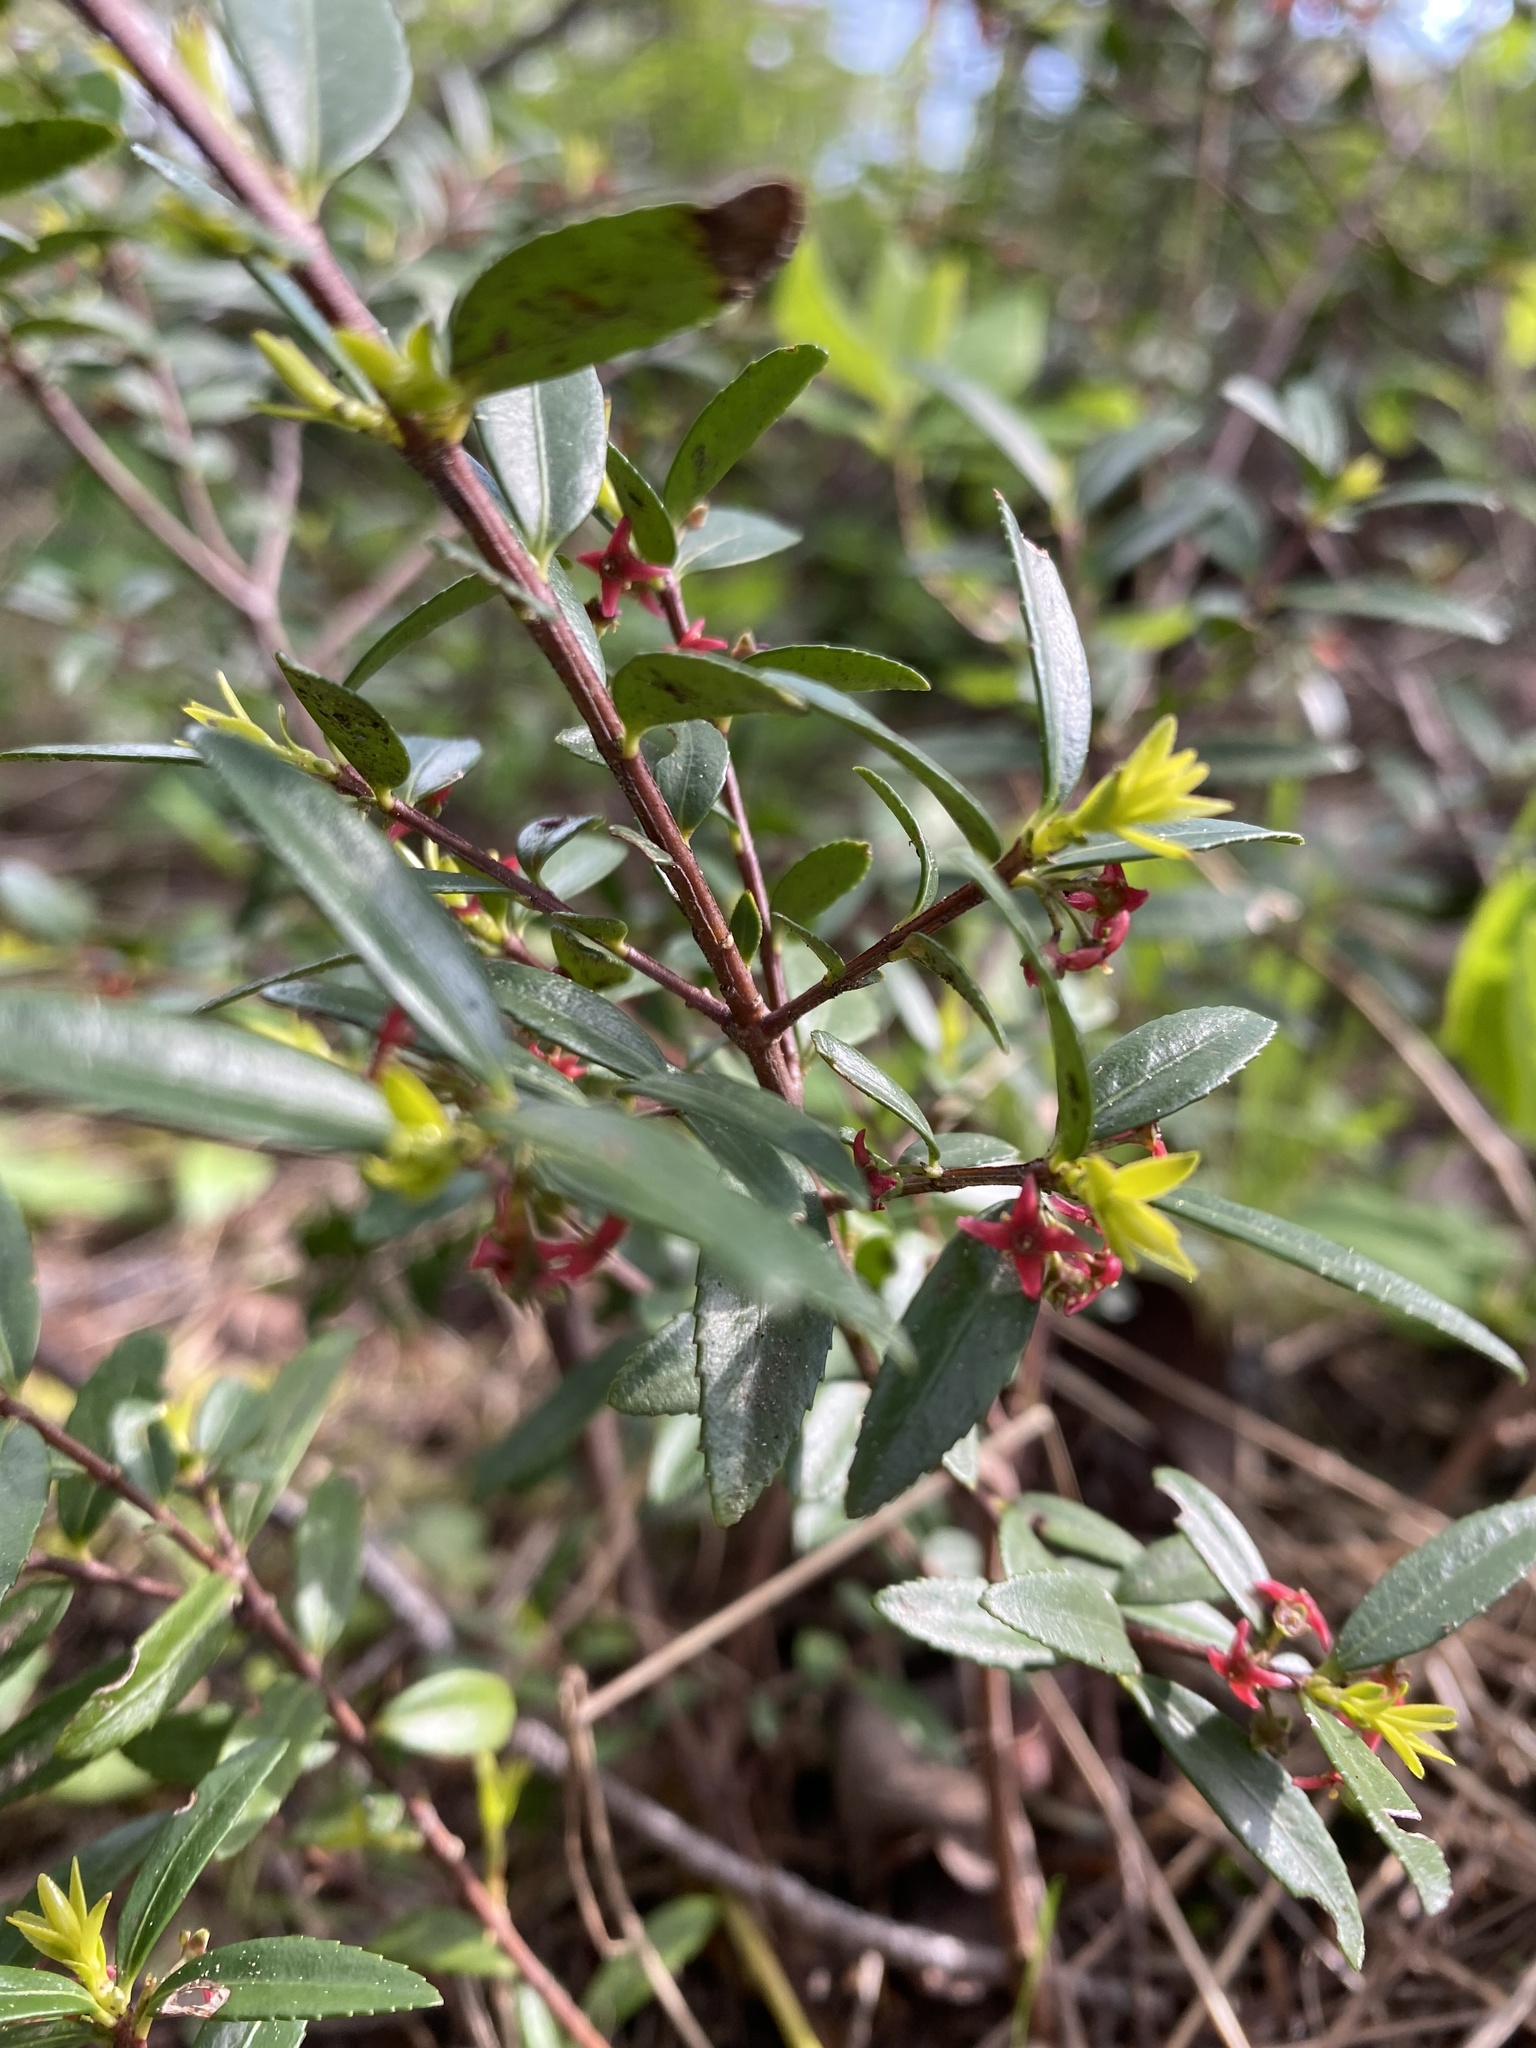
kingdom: Plantae
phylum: Tracheophyta
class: Magnoliopsida
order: Celastrales
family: Celastraceae
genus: Paxistima
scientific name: Paxistima myrsinites
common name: Mountain-lover
